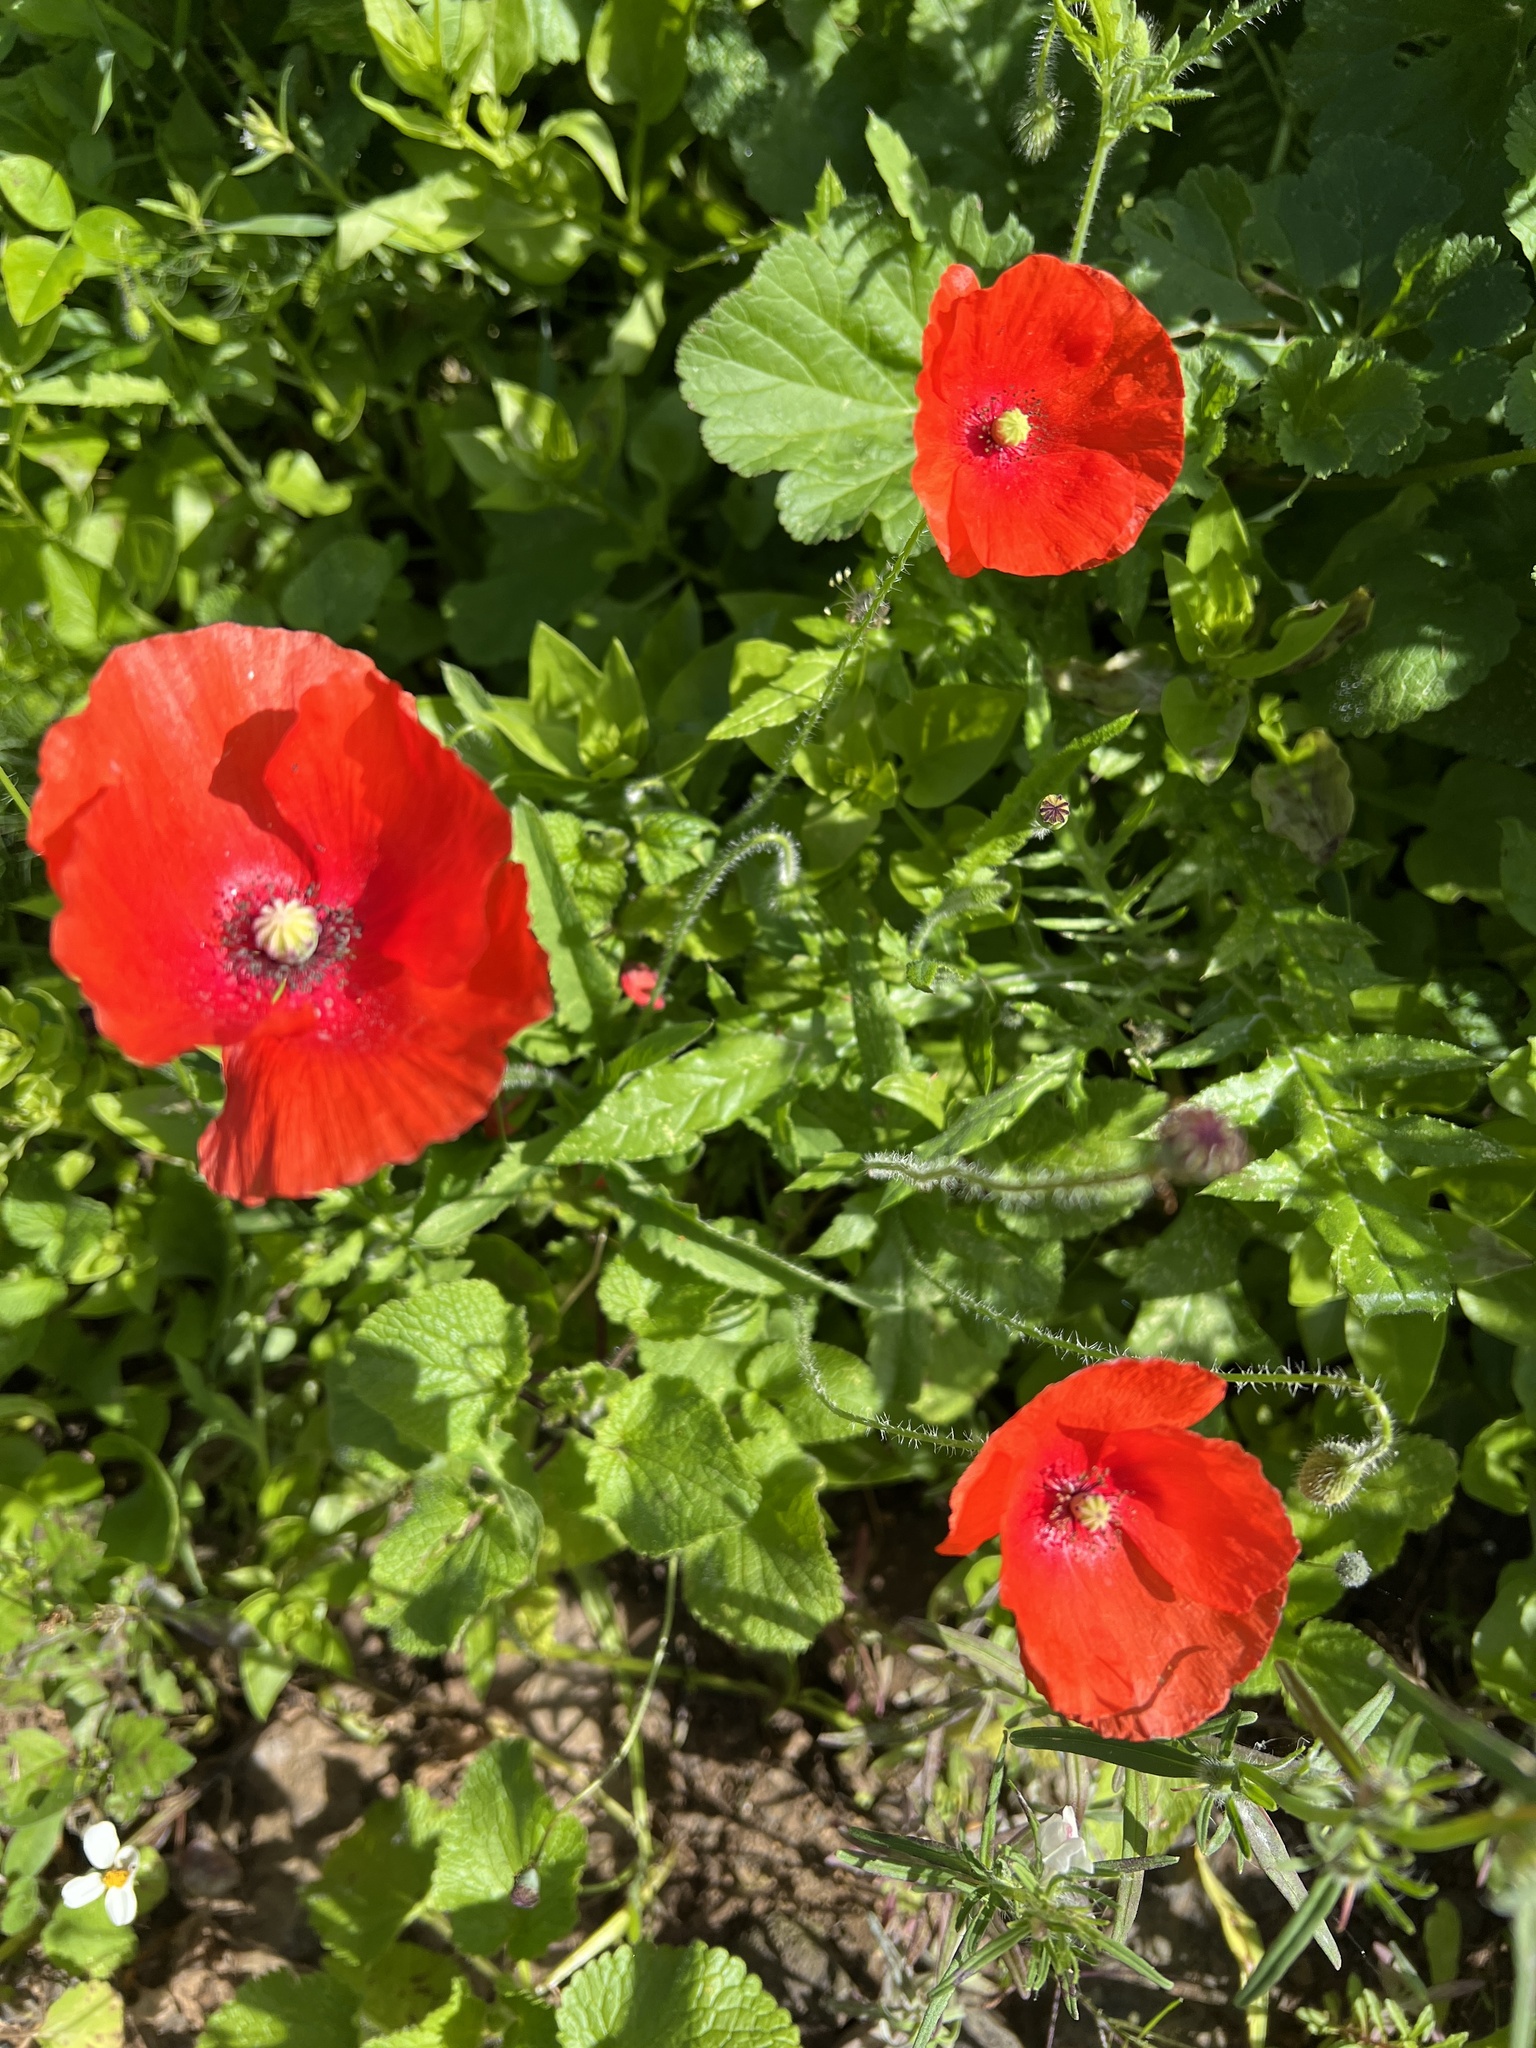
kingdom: Plantae
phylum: Tracheophyta
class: Magnoliopsida
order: Ranunculales
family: Papaveraceae
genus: Papaver
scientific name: Papaver rhoeas
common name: Corn poppy
